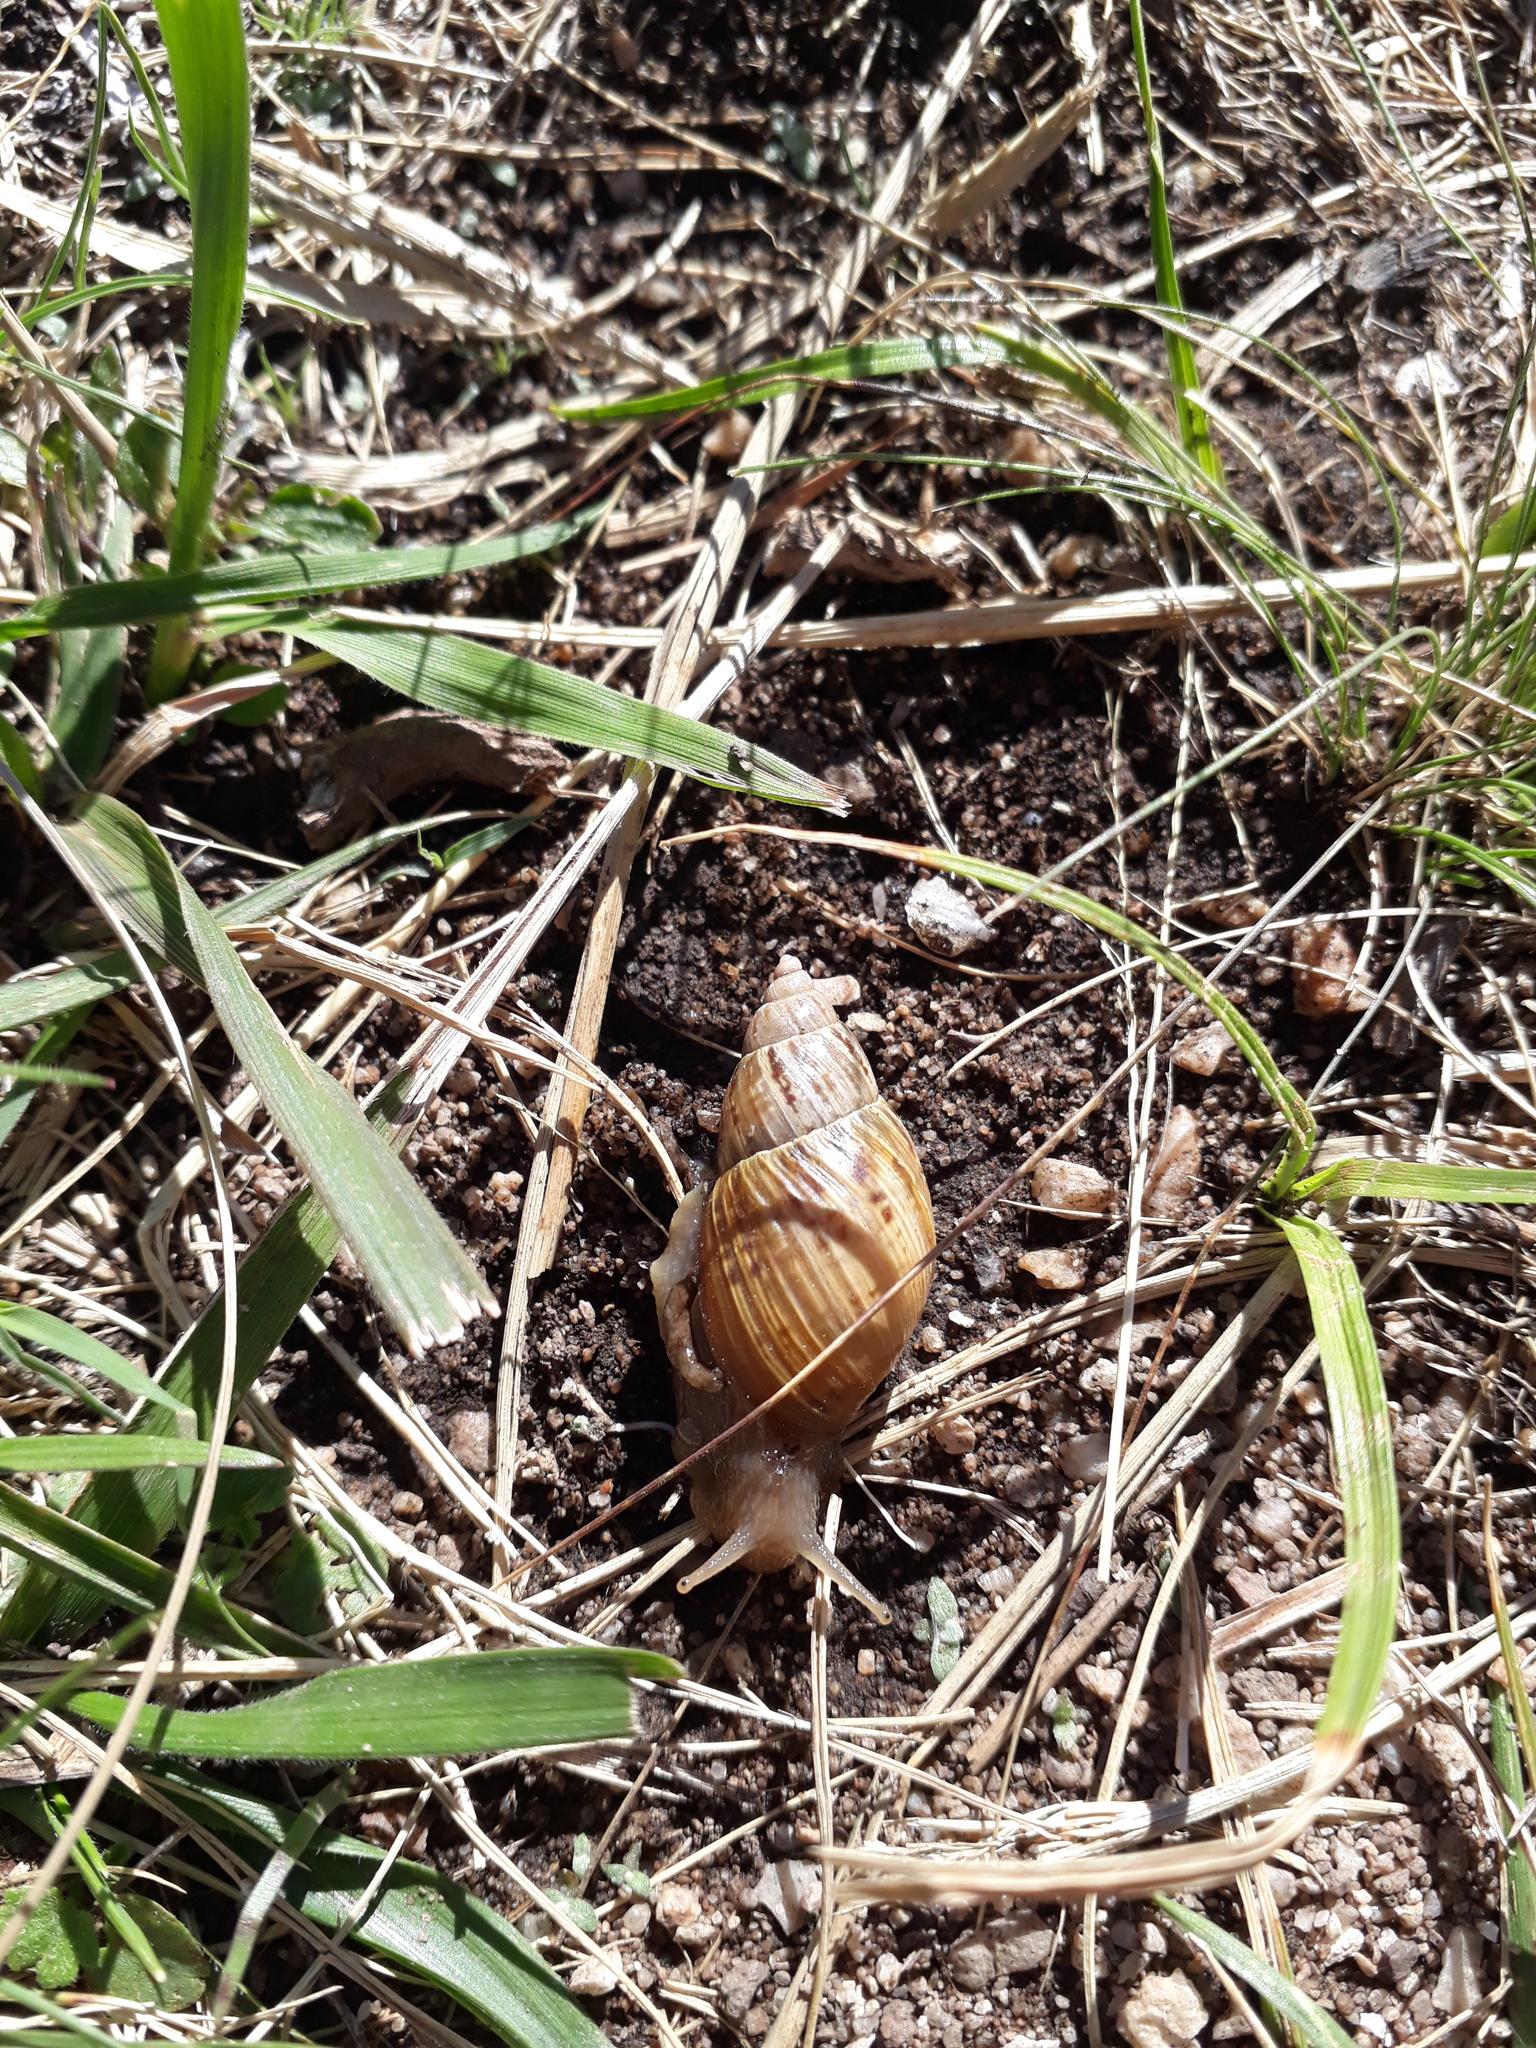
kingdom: Animalia
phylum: Mollusca
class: Gastropoda
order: Stylommatophora
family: Bothriembryontidae
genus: Discoleus
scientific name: Discoleus aguirrei
